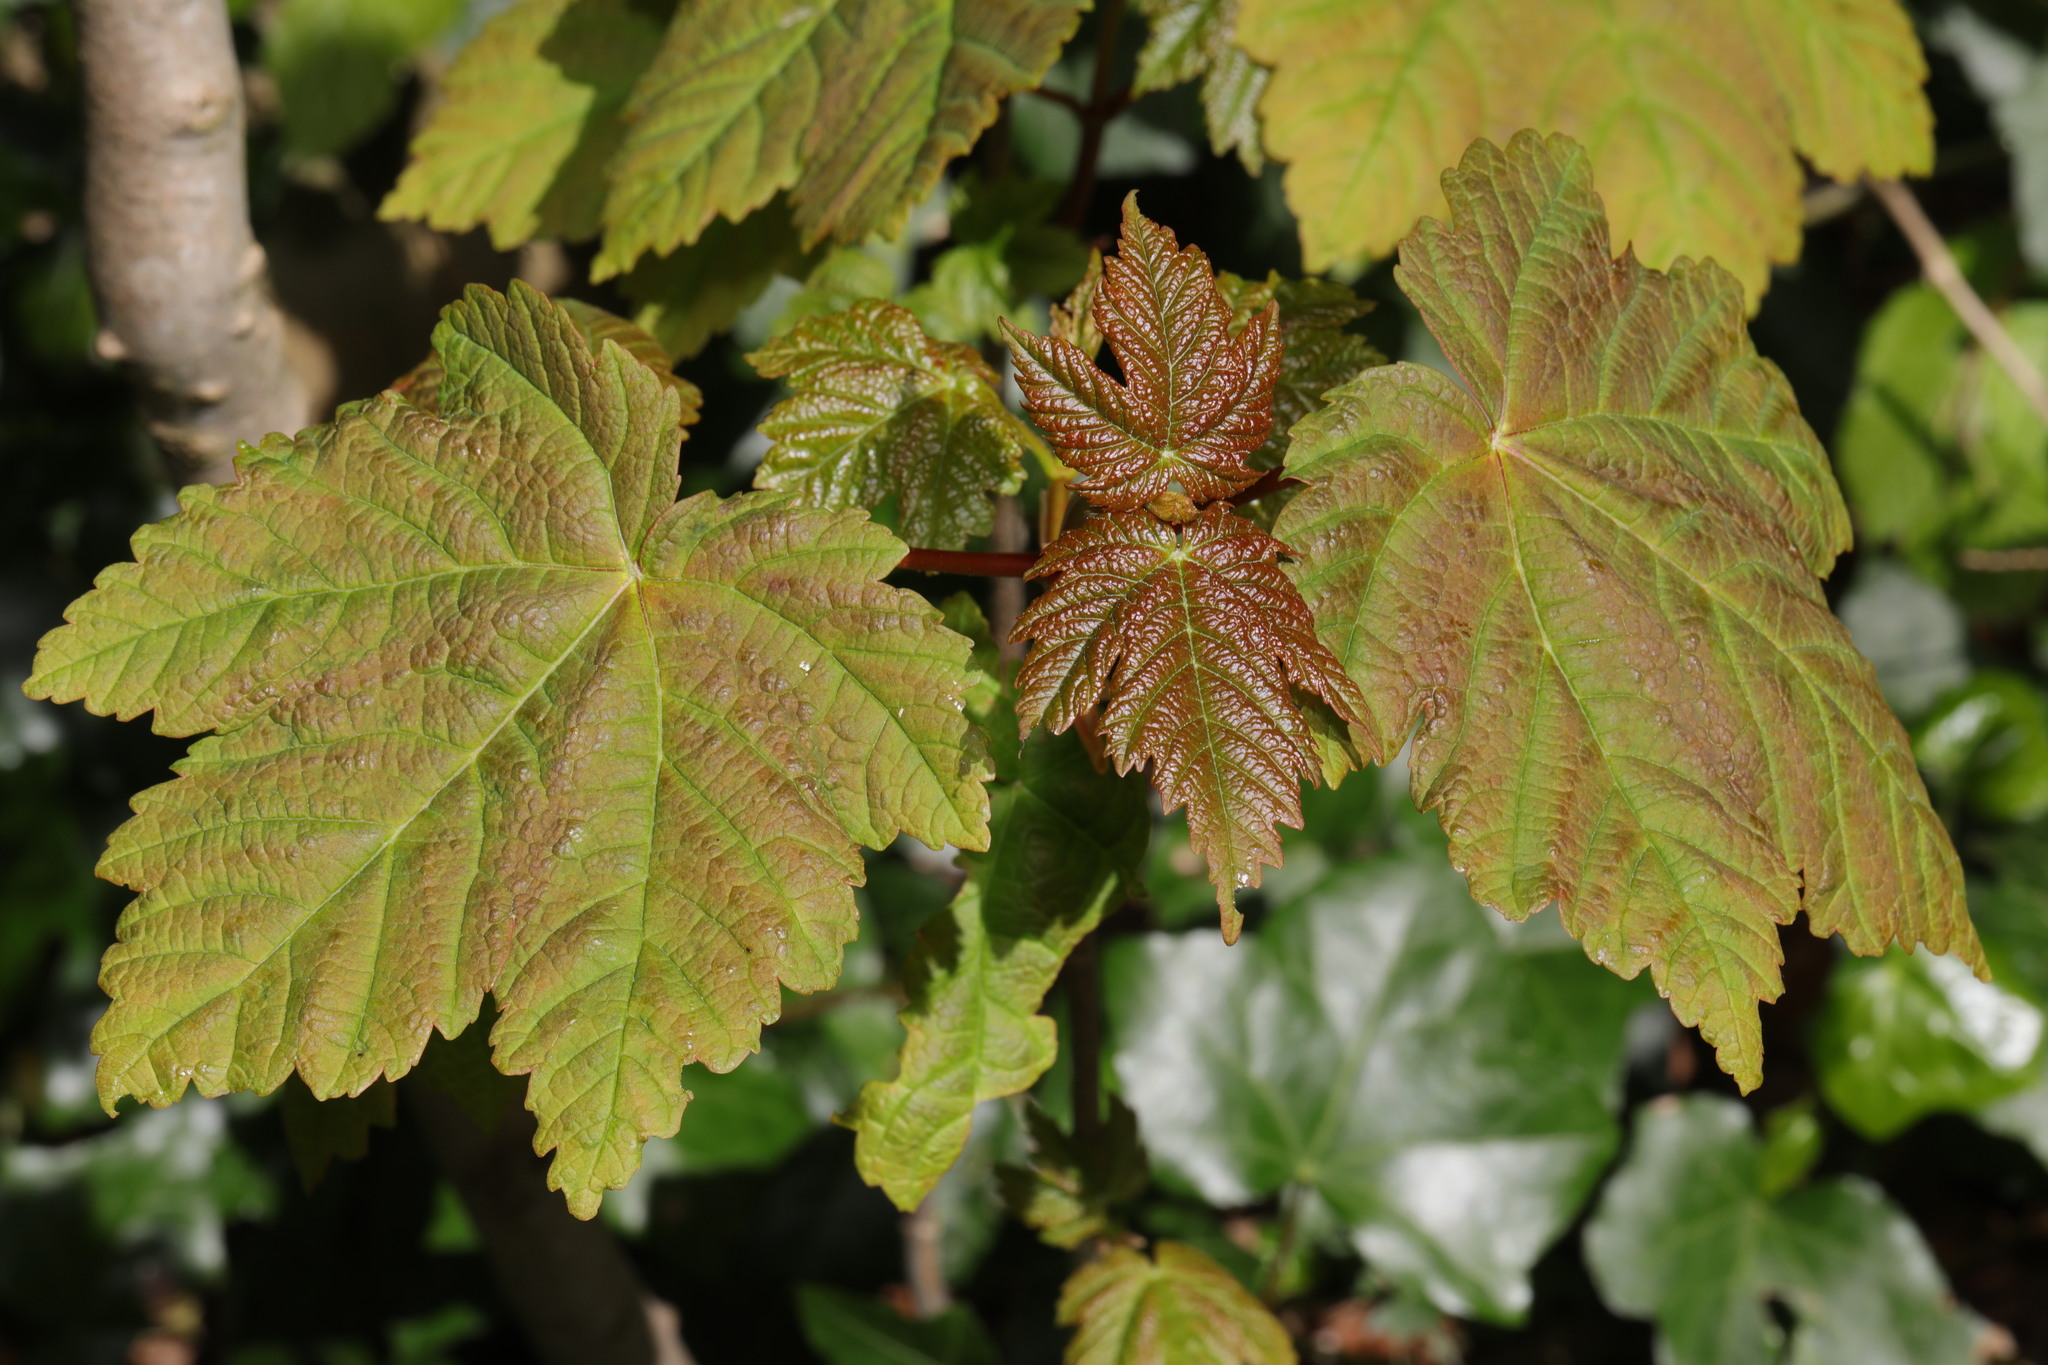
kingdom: Plantae
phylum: Tracheophyta
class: Magnoliopsida
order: Sapindales
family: Sapindaceae
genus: Acer
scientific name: Acer pseudoplatanus
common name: Sycamore
